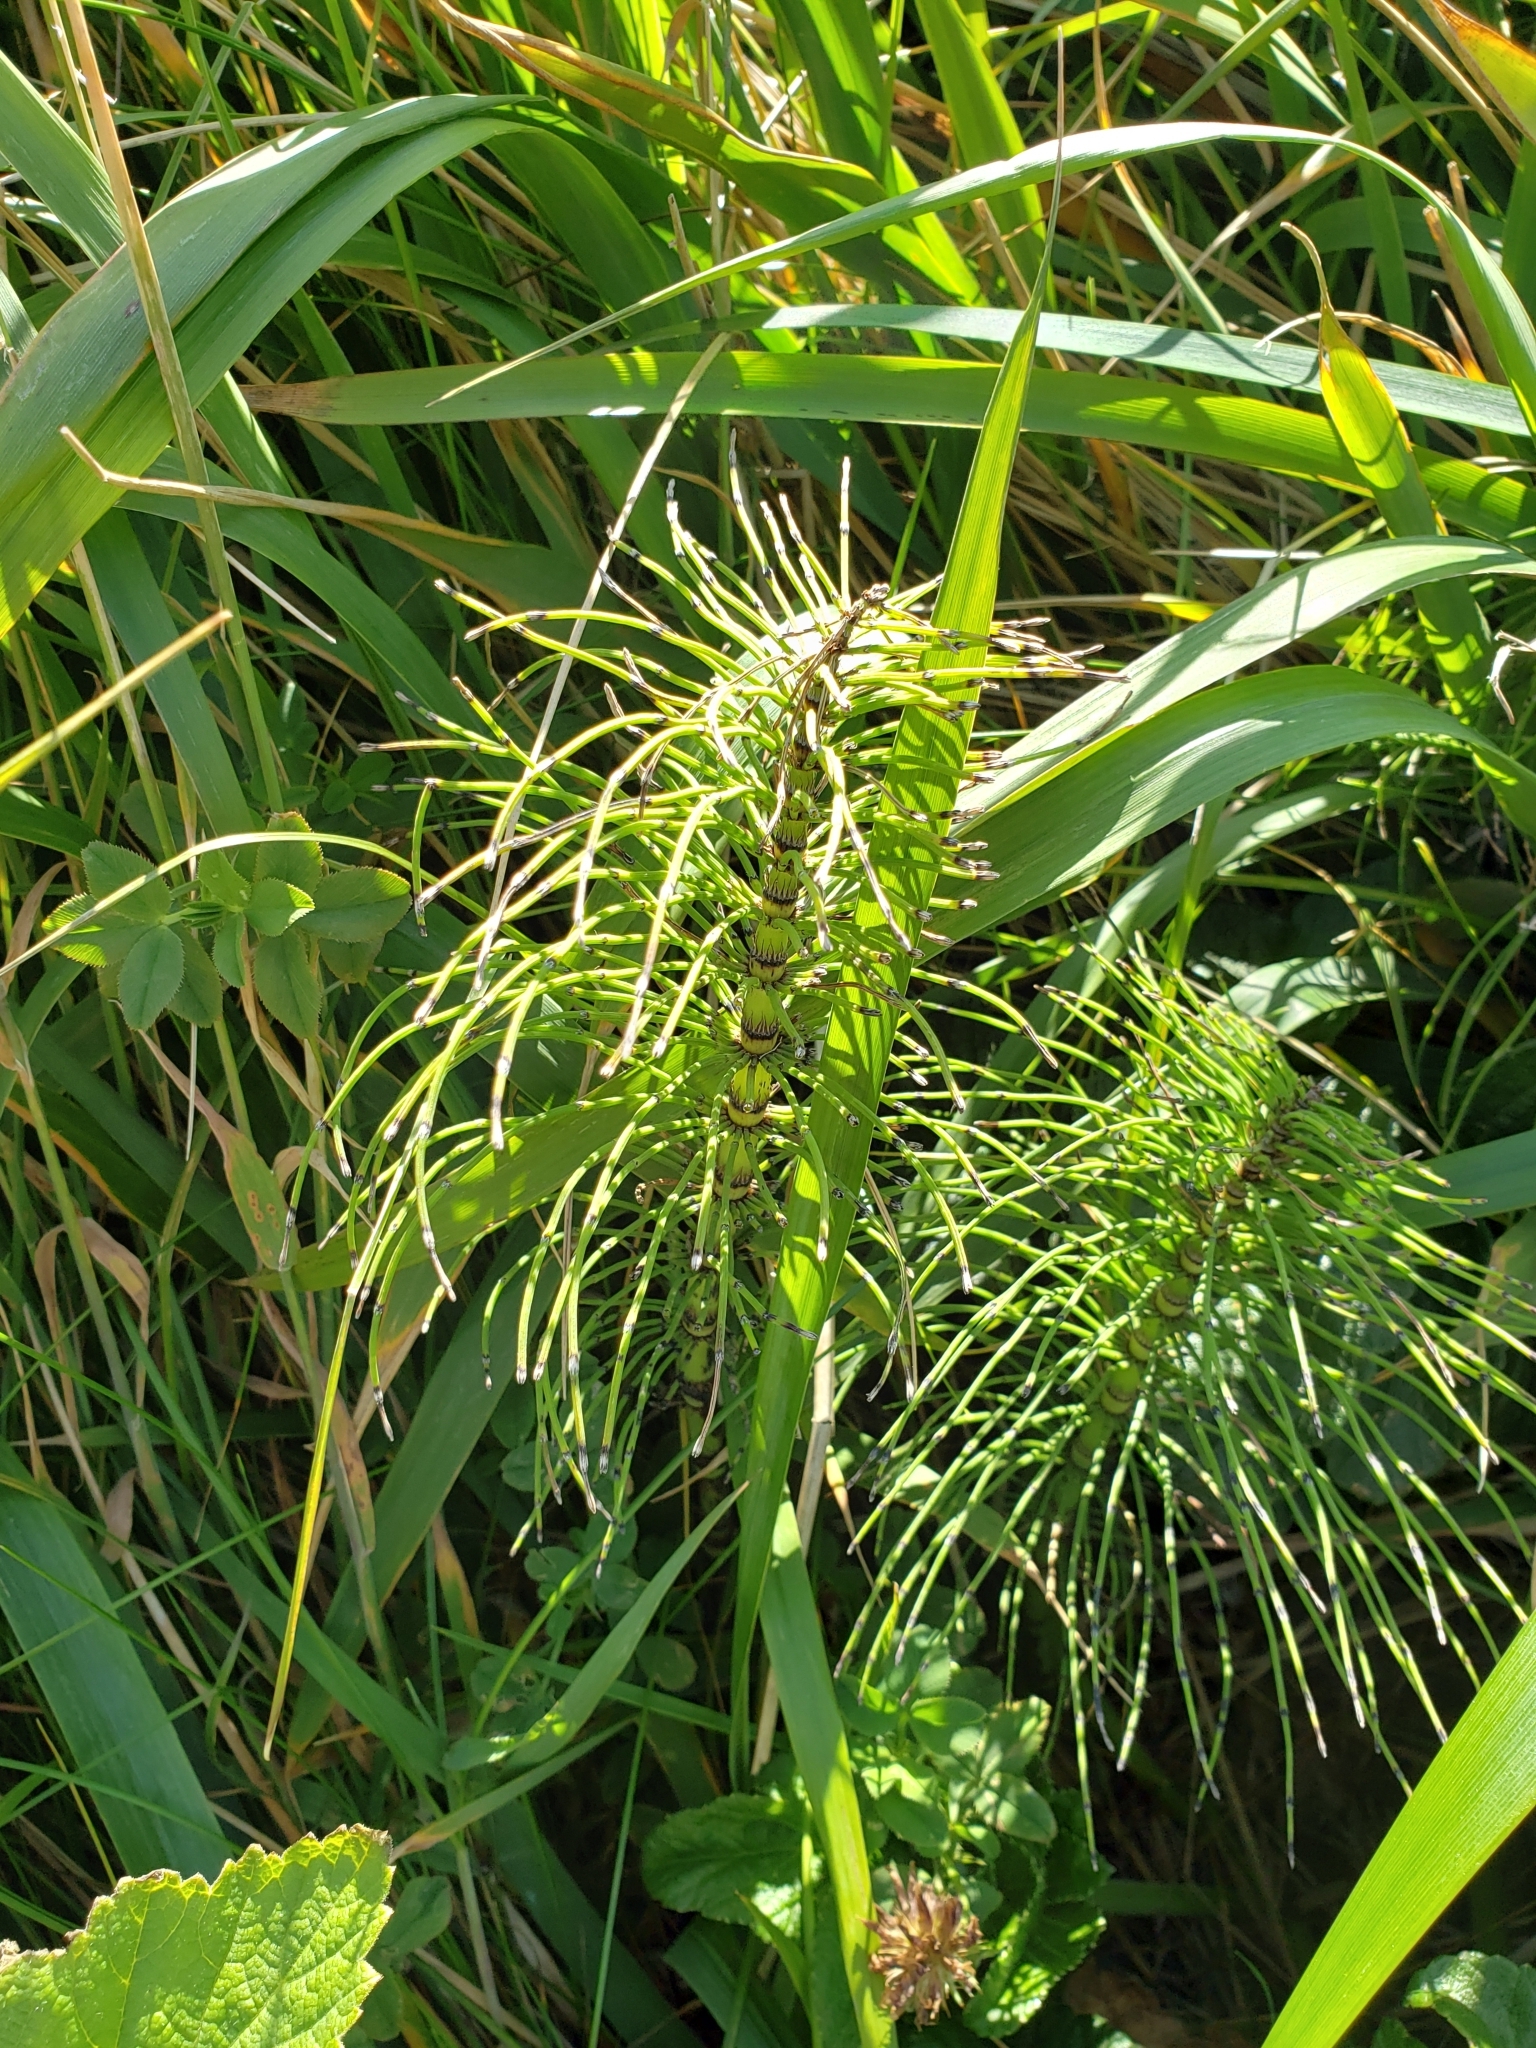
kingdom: Plantae
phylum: Tracheophyta
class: Polypodiopsida
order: Equisetales
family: Equisetaceae
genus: Equisetum
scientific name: Equisetum telmateia
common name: Great horsetail
